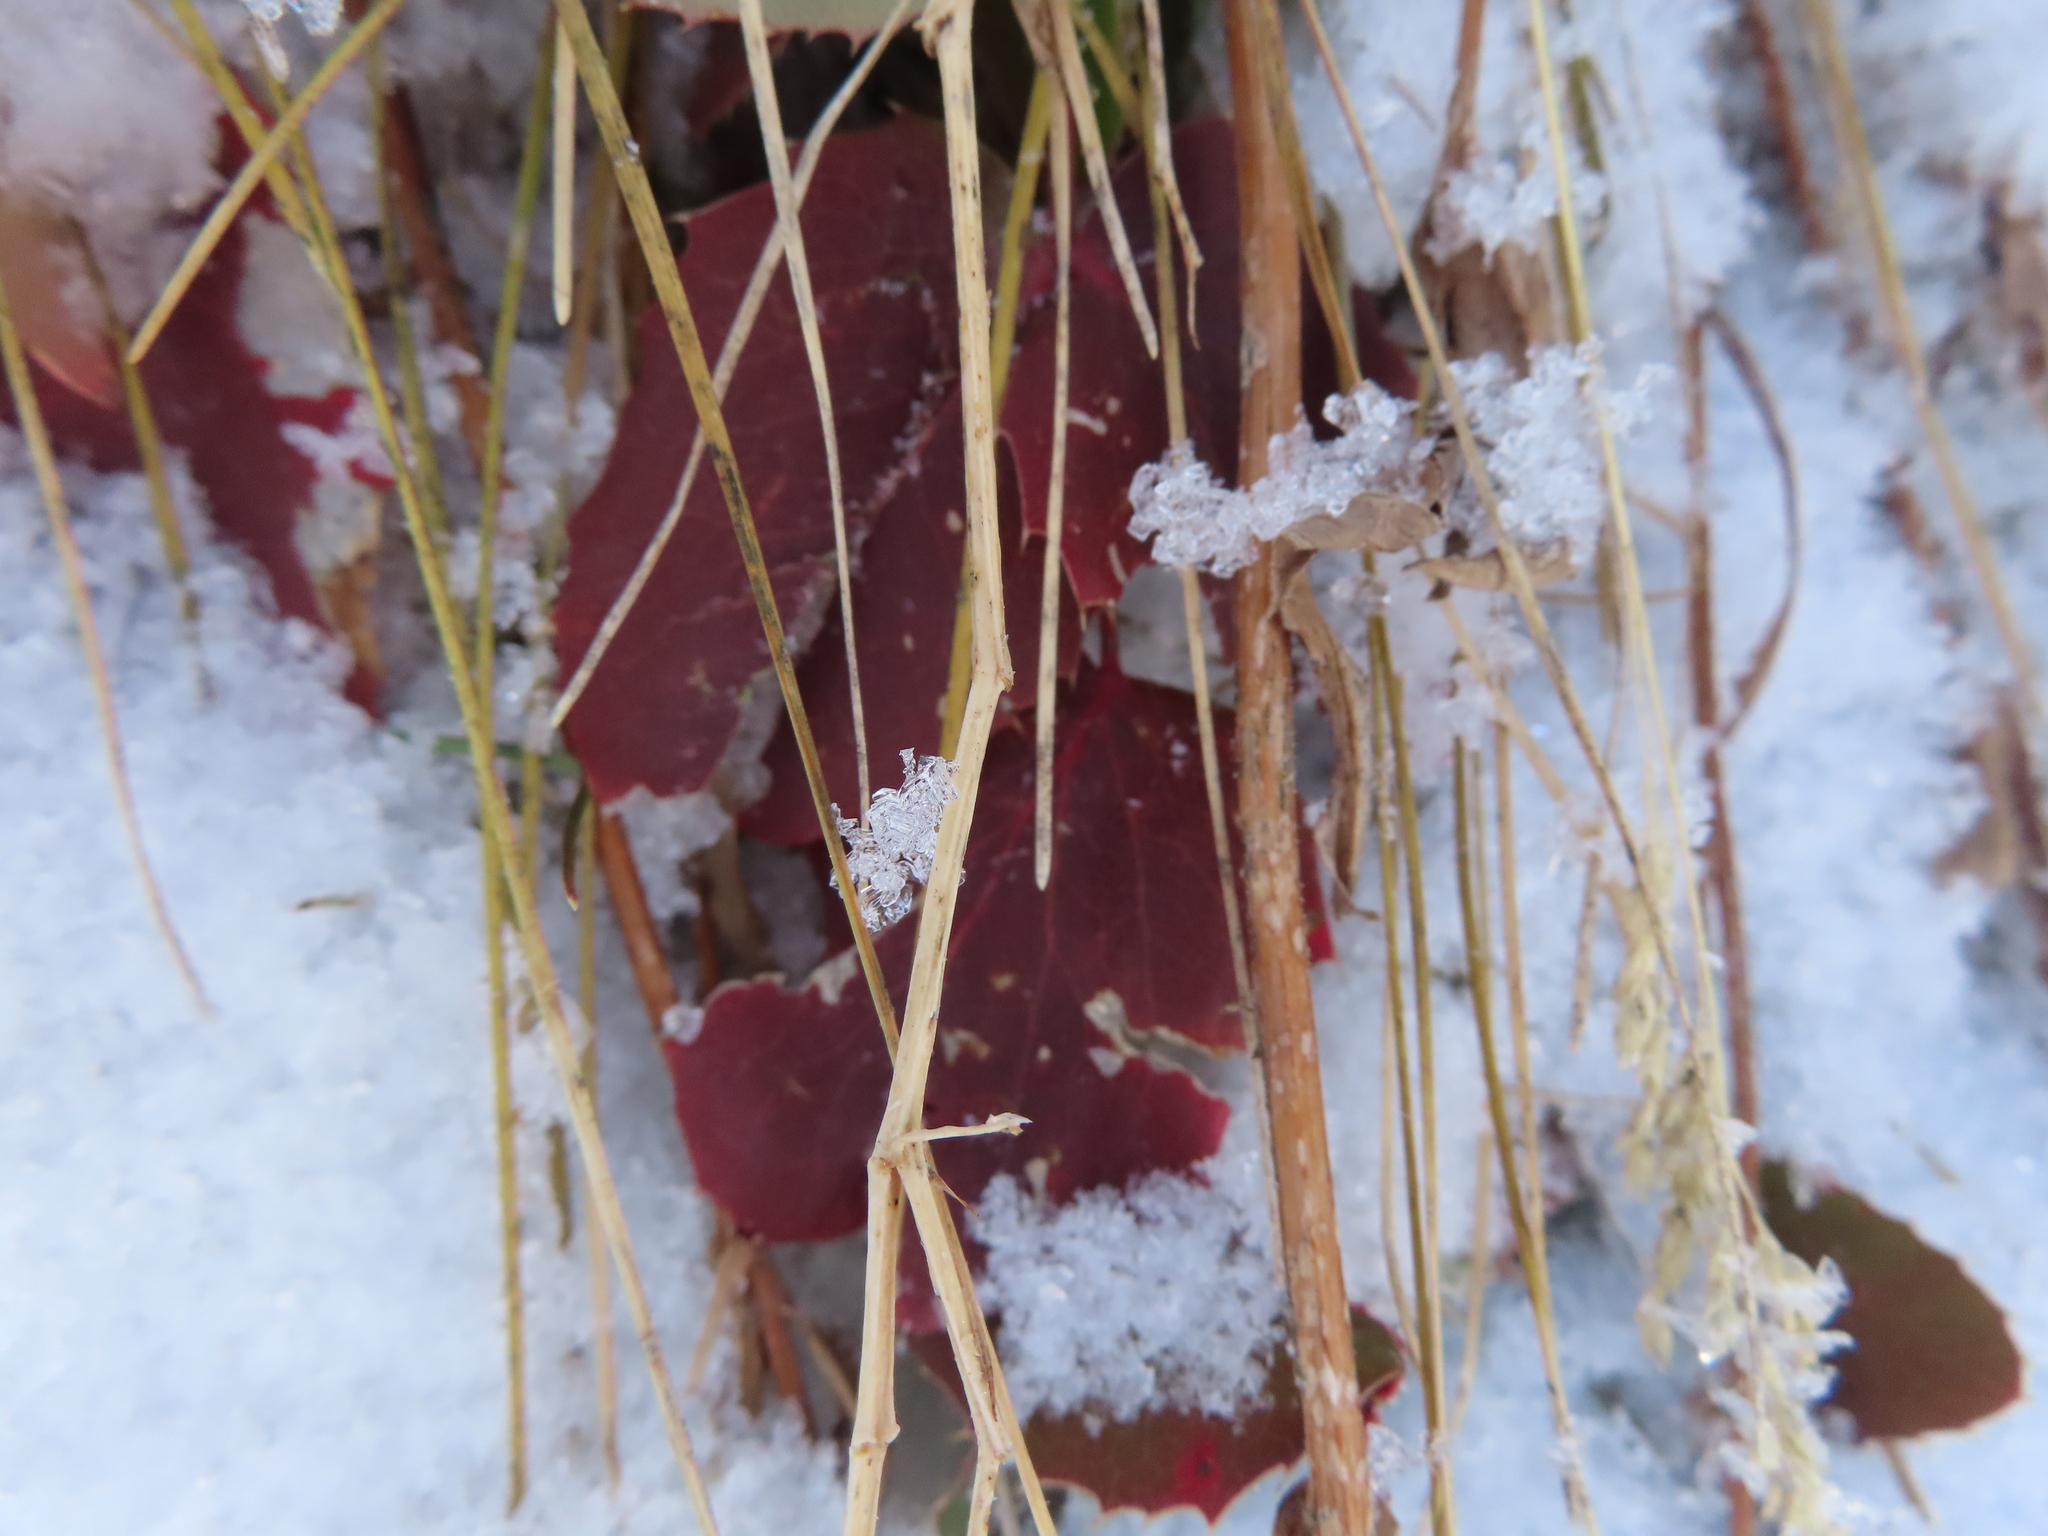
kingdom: Plantae
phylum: Tracheophyta
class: Magnoliopsida
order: Ranunculales
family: Berberidaceae
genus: Mahonia
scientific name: Mahonia repens
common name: Creeping oregon-grape
